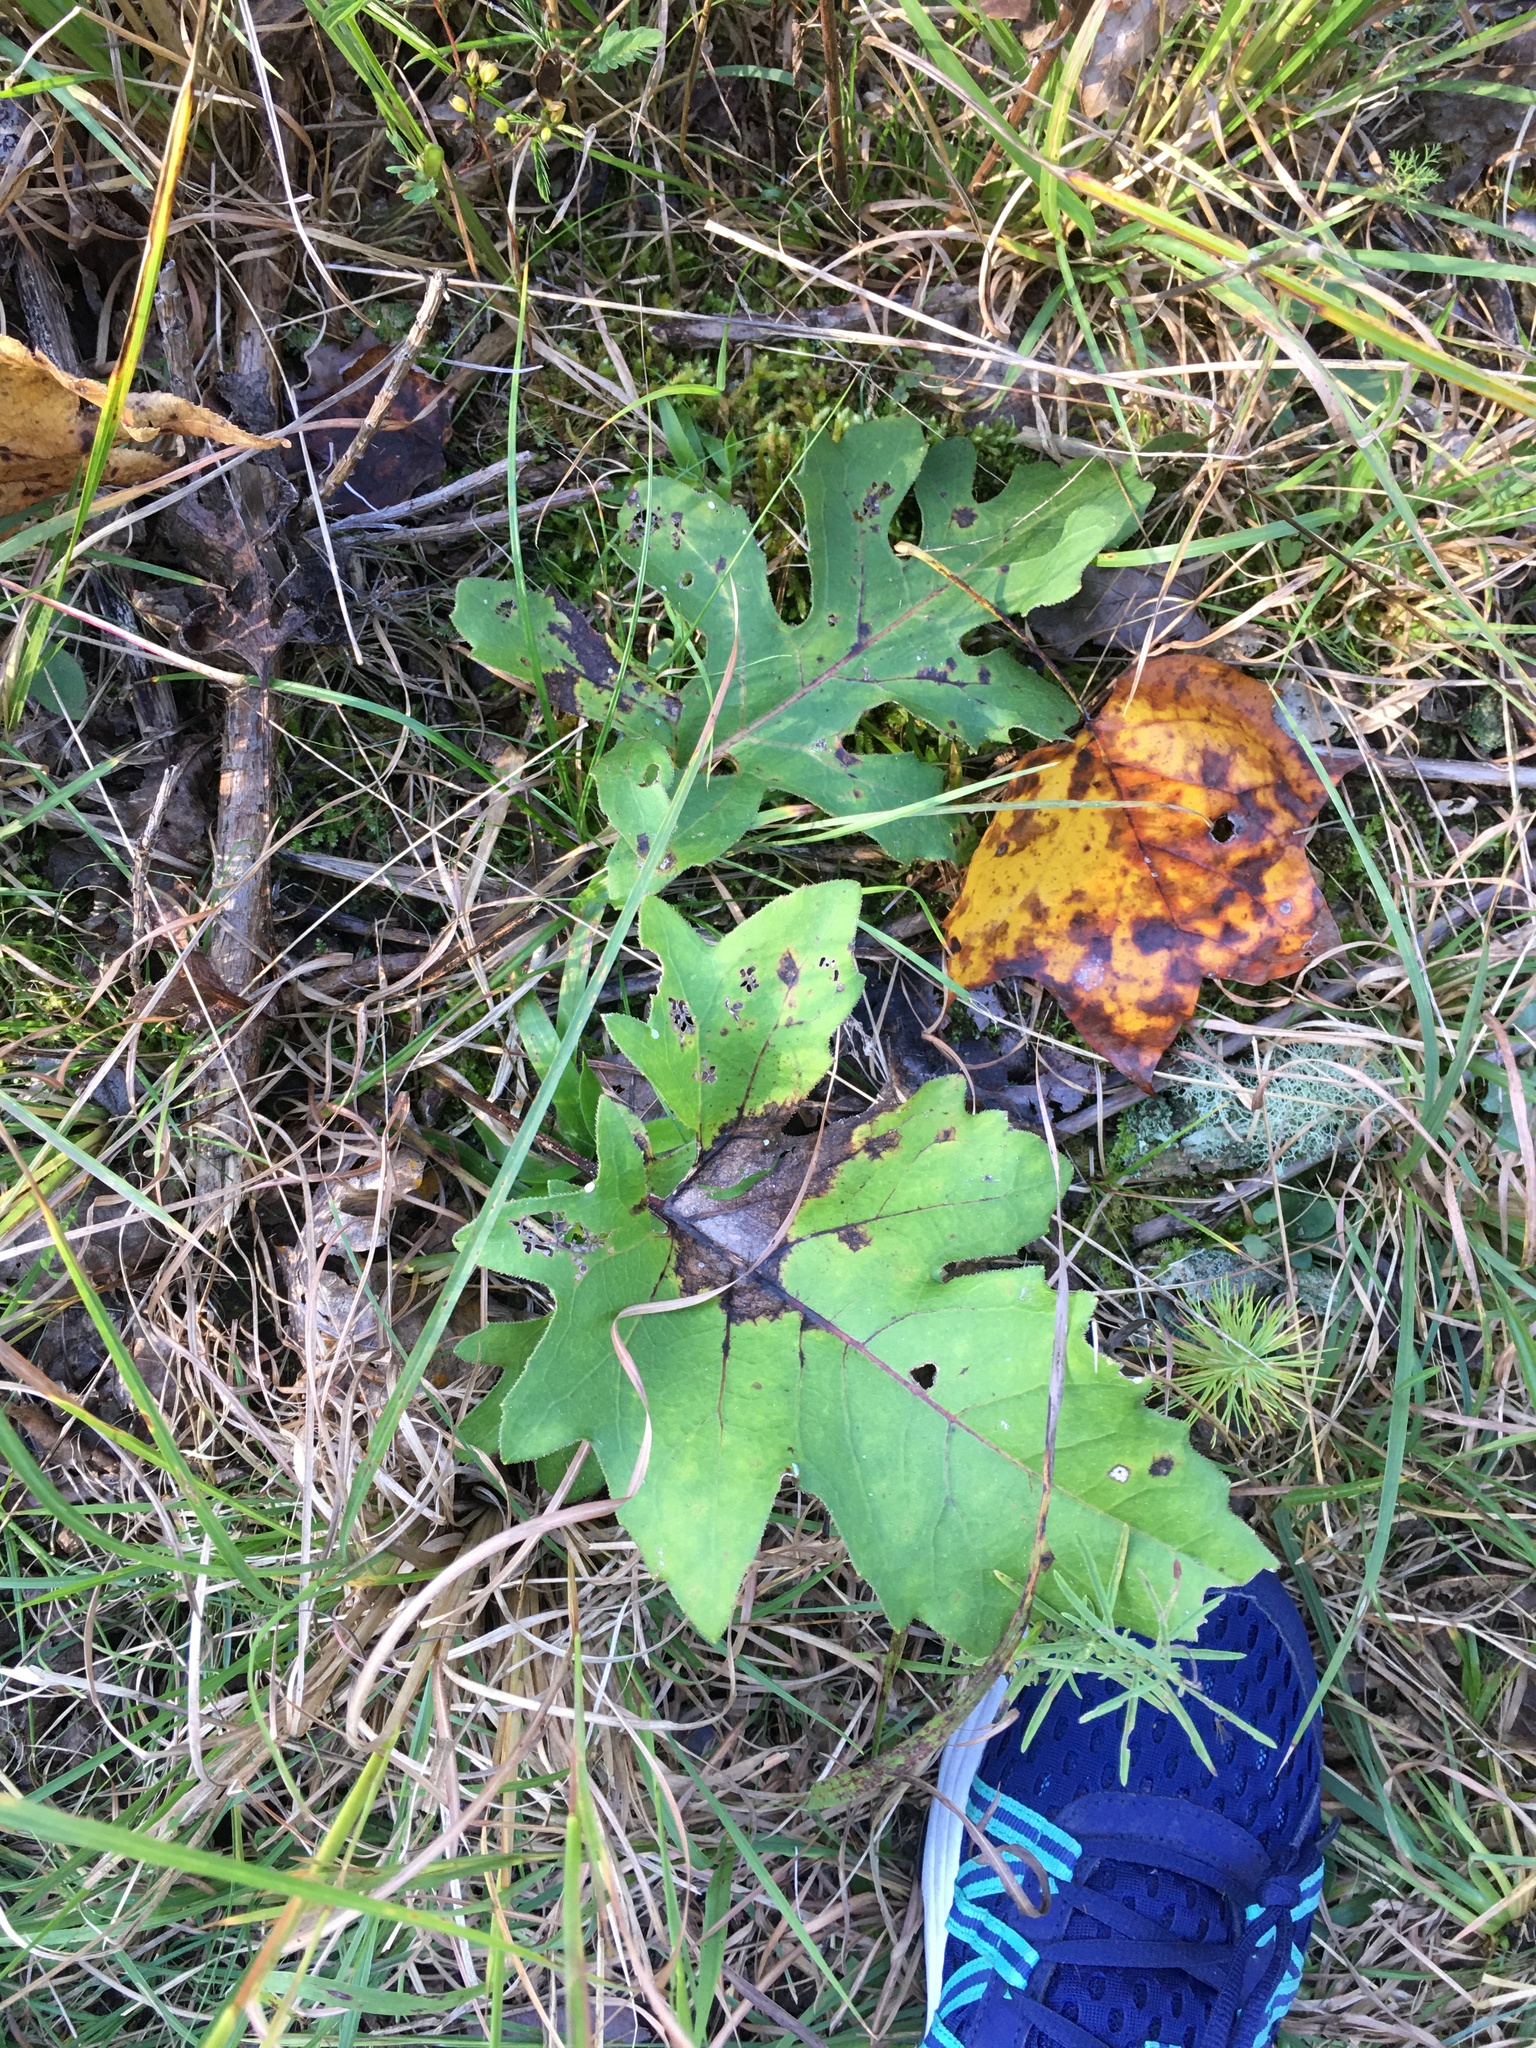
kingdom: Plantae
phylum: Tracheophyta
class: Magnoliopsida
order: Asterales
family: Asteraceae
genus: Silphium
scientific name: Silphium compositum
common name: Lesser basal-leaf rosinweed
